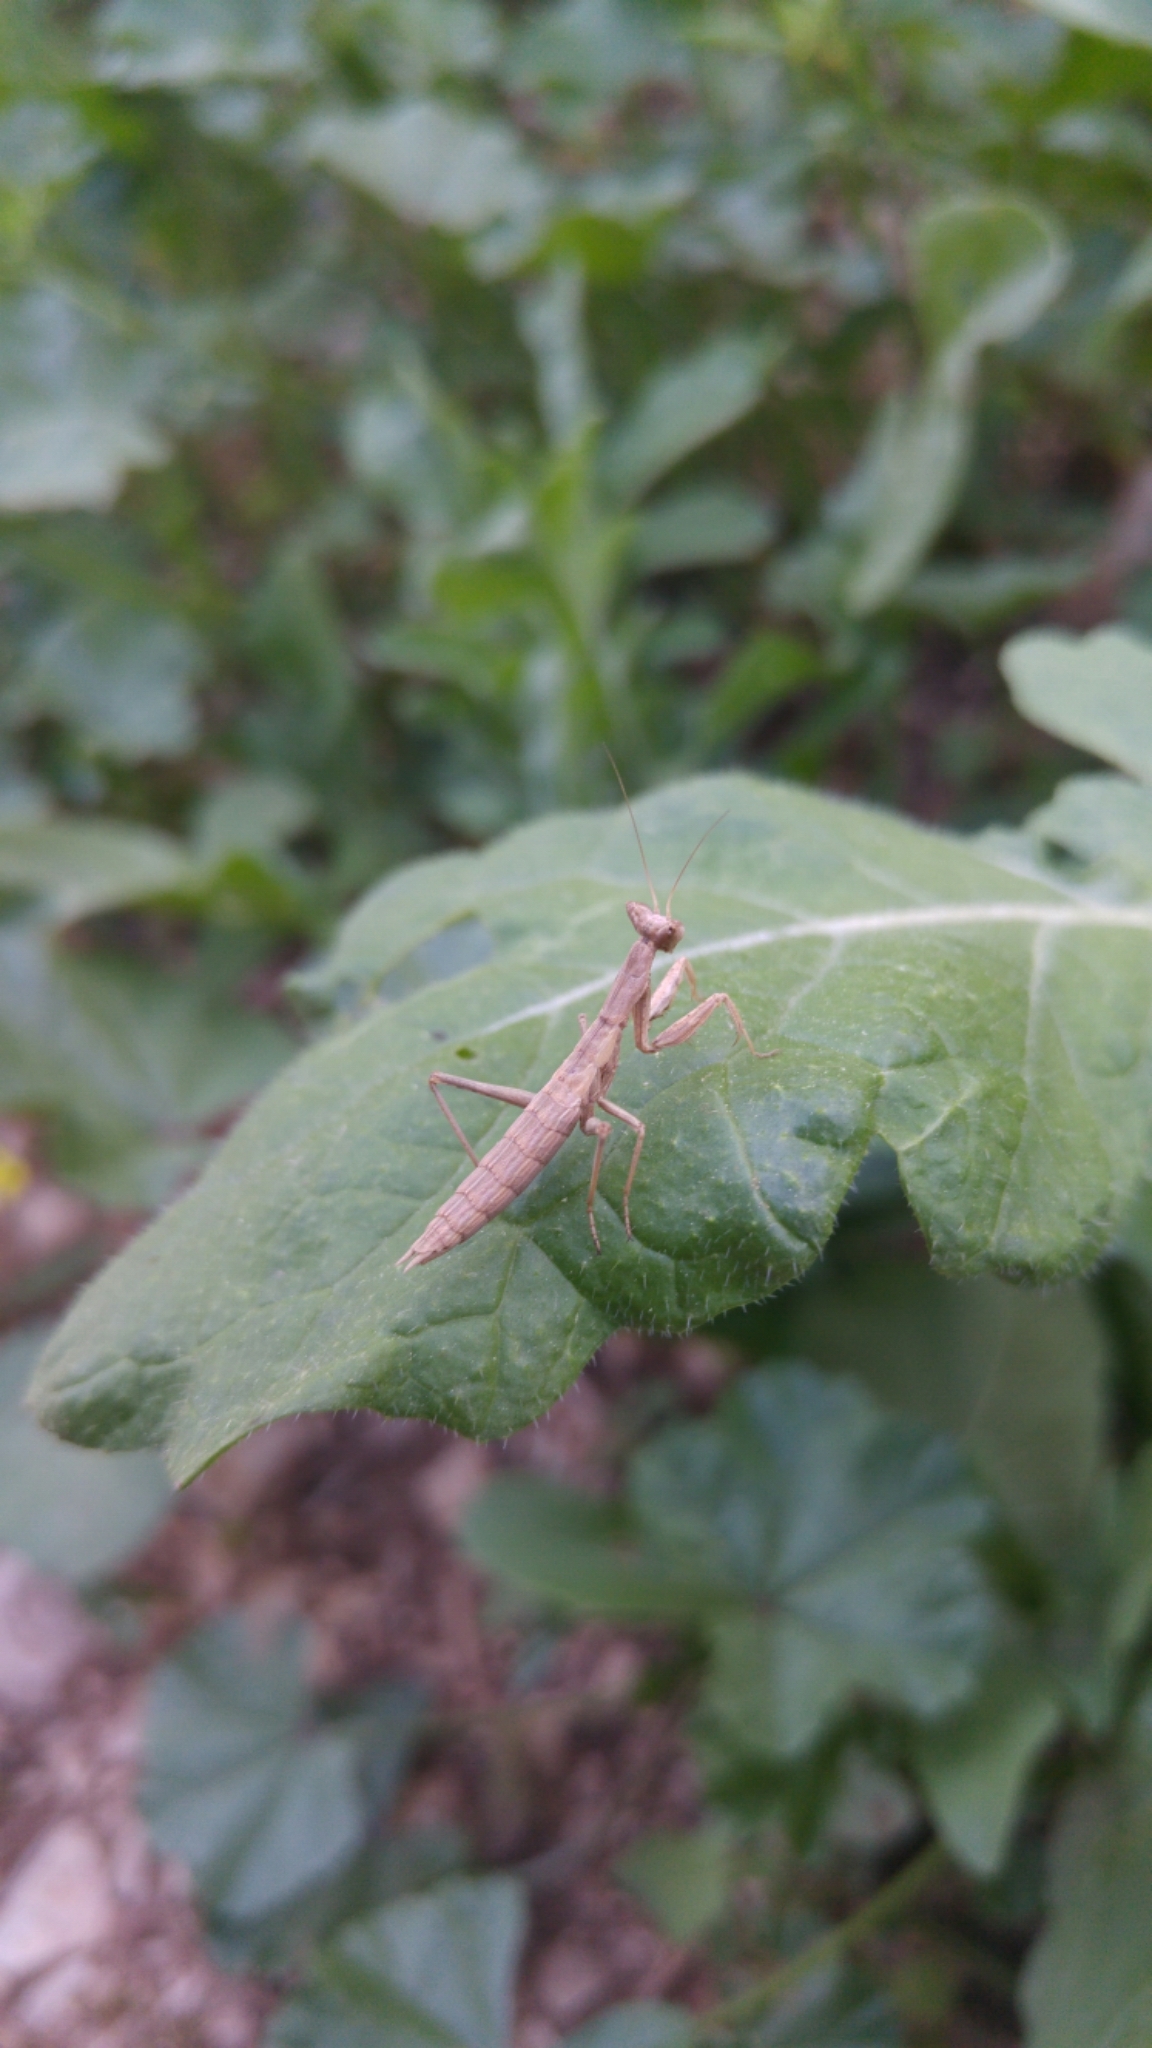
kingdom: Animalia
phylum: Arthropoda
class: Insecta
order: Mantodea
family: Amelidae
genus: Ameles
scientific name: Ameles kervillei
